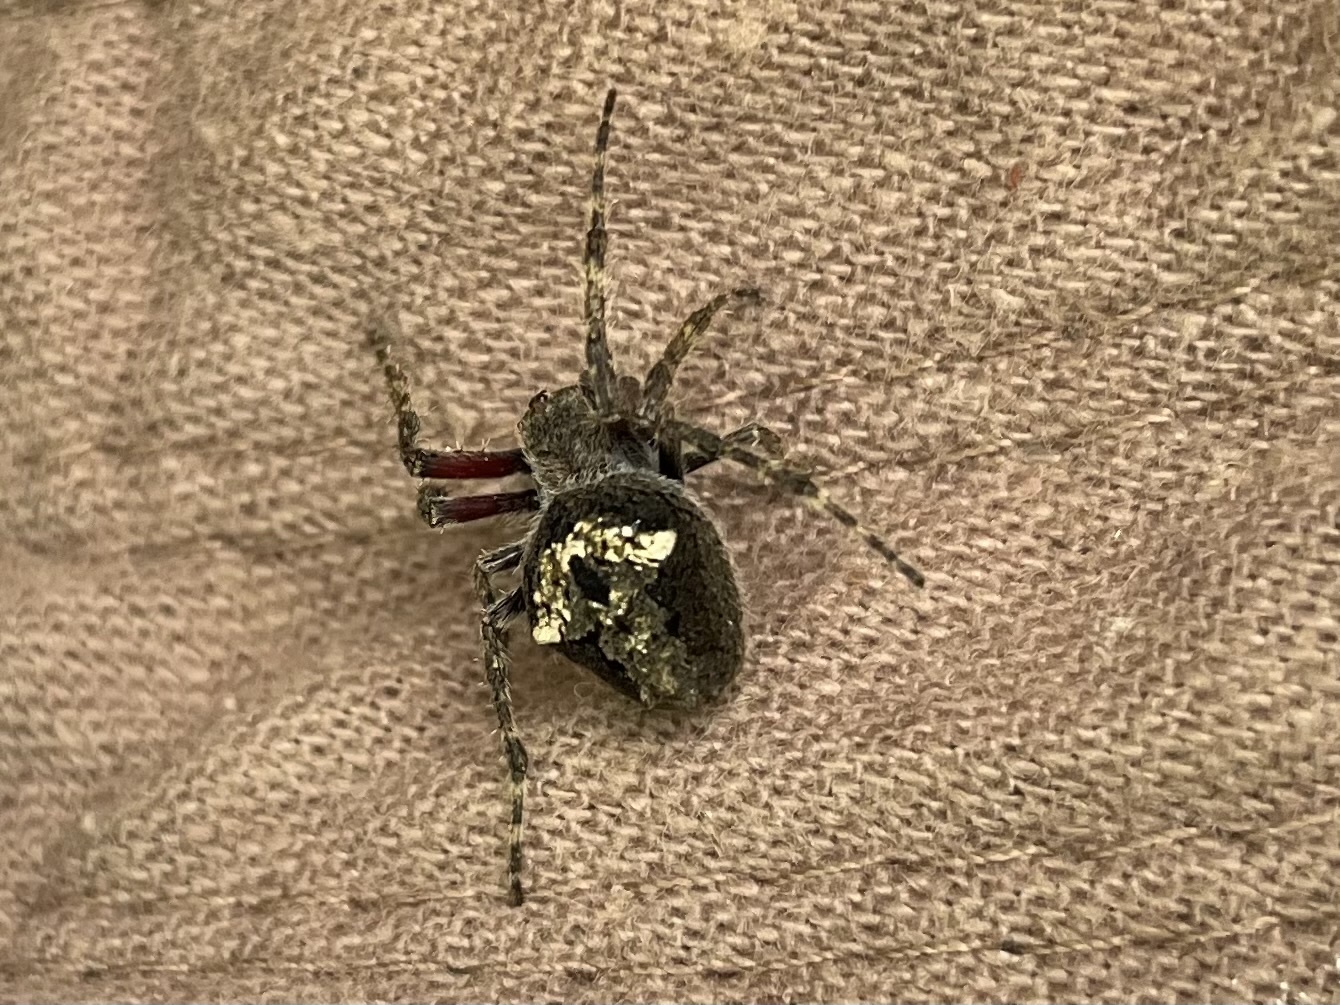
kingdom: Animalia
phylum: Arthropoda
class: Arachnida
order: Araneae
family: Araneidae
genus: Eriophora
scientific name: Eriophora pustulosa
